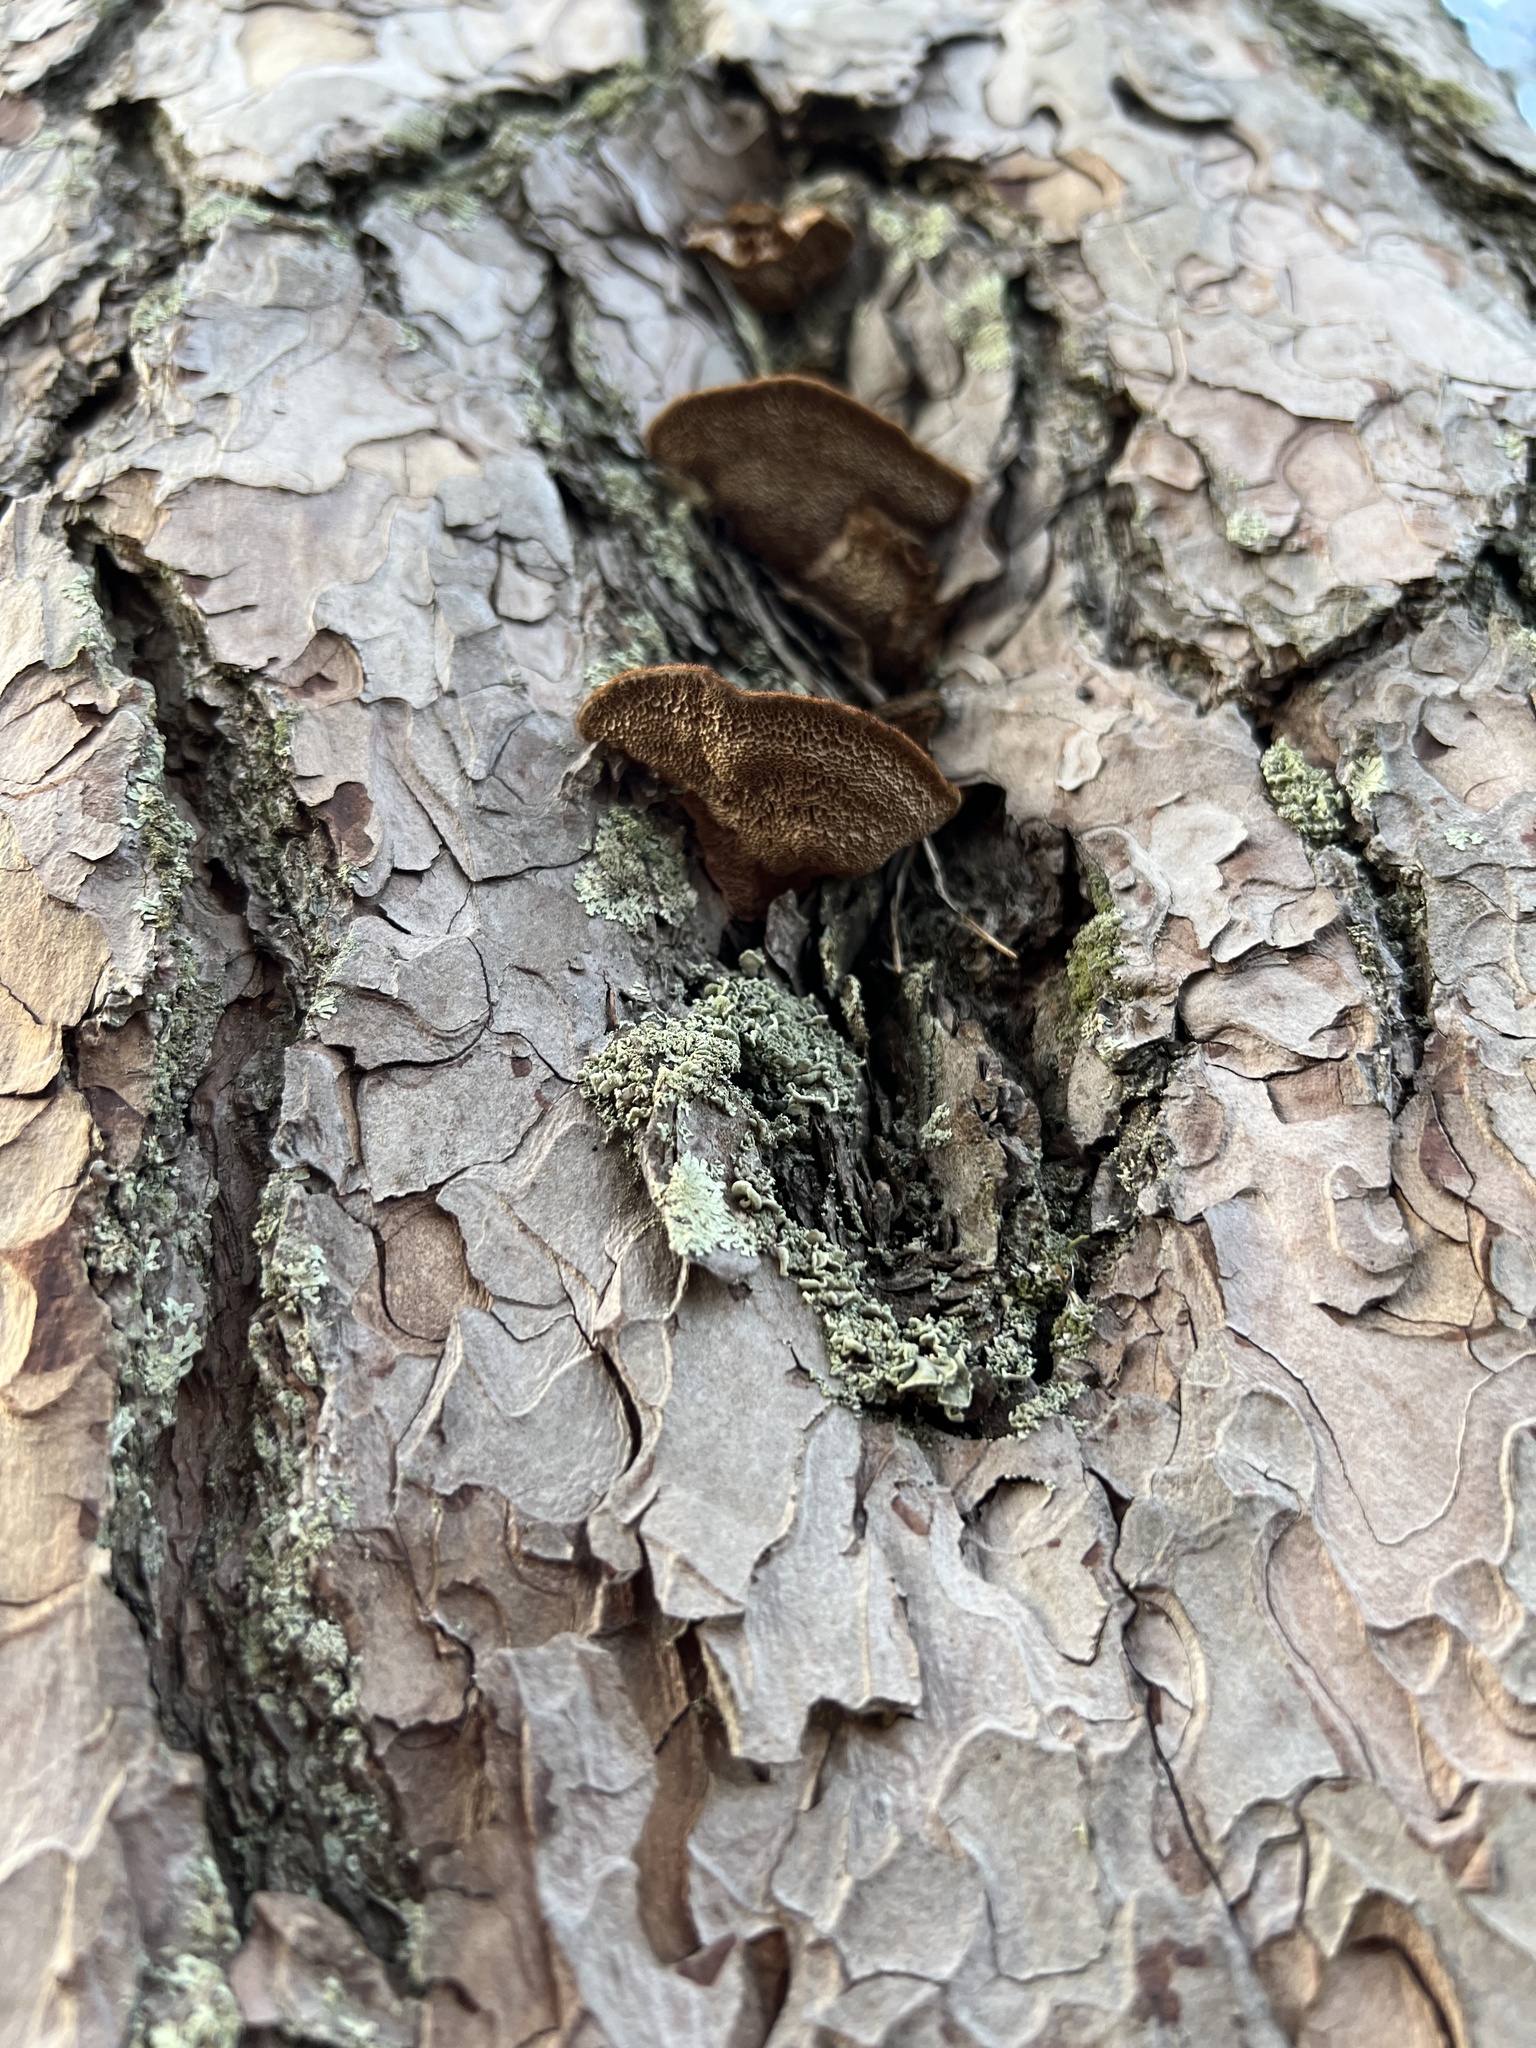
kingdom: Fungi
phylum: Basidiomycota
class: Agaricomycetes
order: Hymenochaetales
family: Hymenochaetaceae
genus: Porodaedalea
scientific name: Porodaedalea pini
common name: Pine bracket
